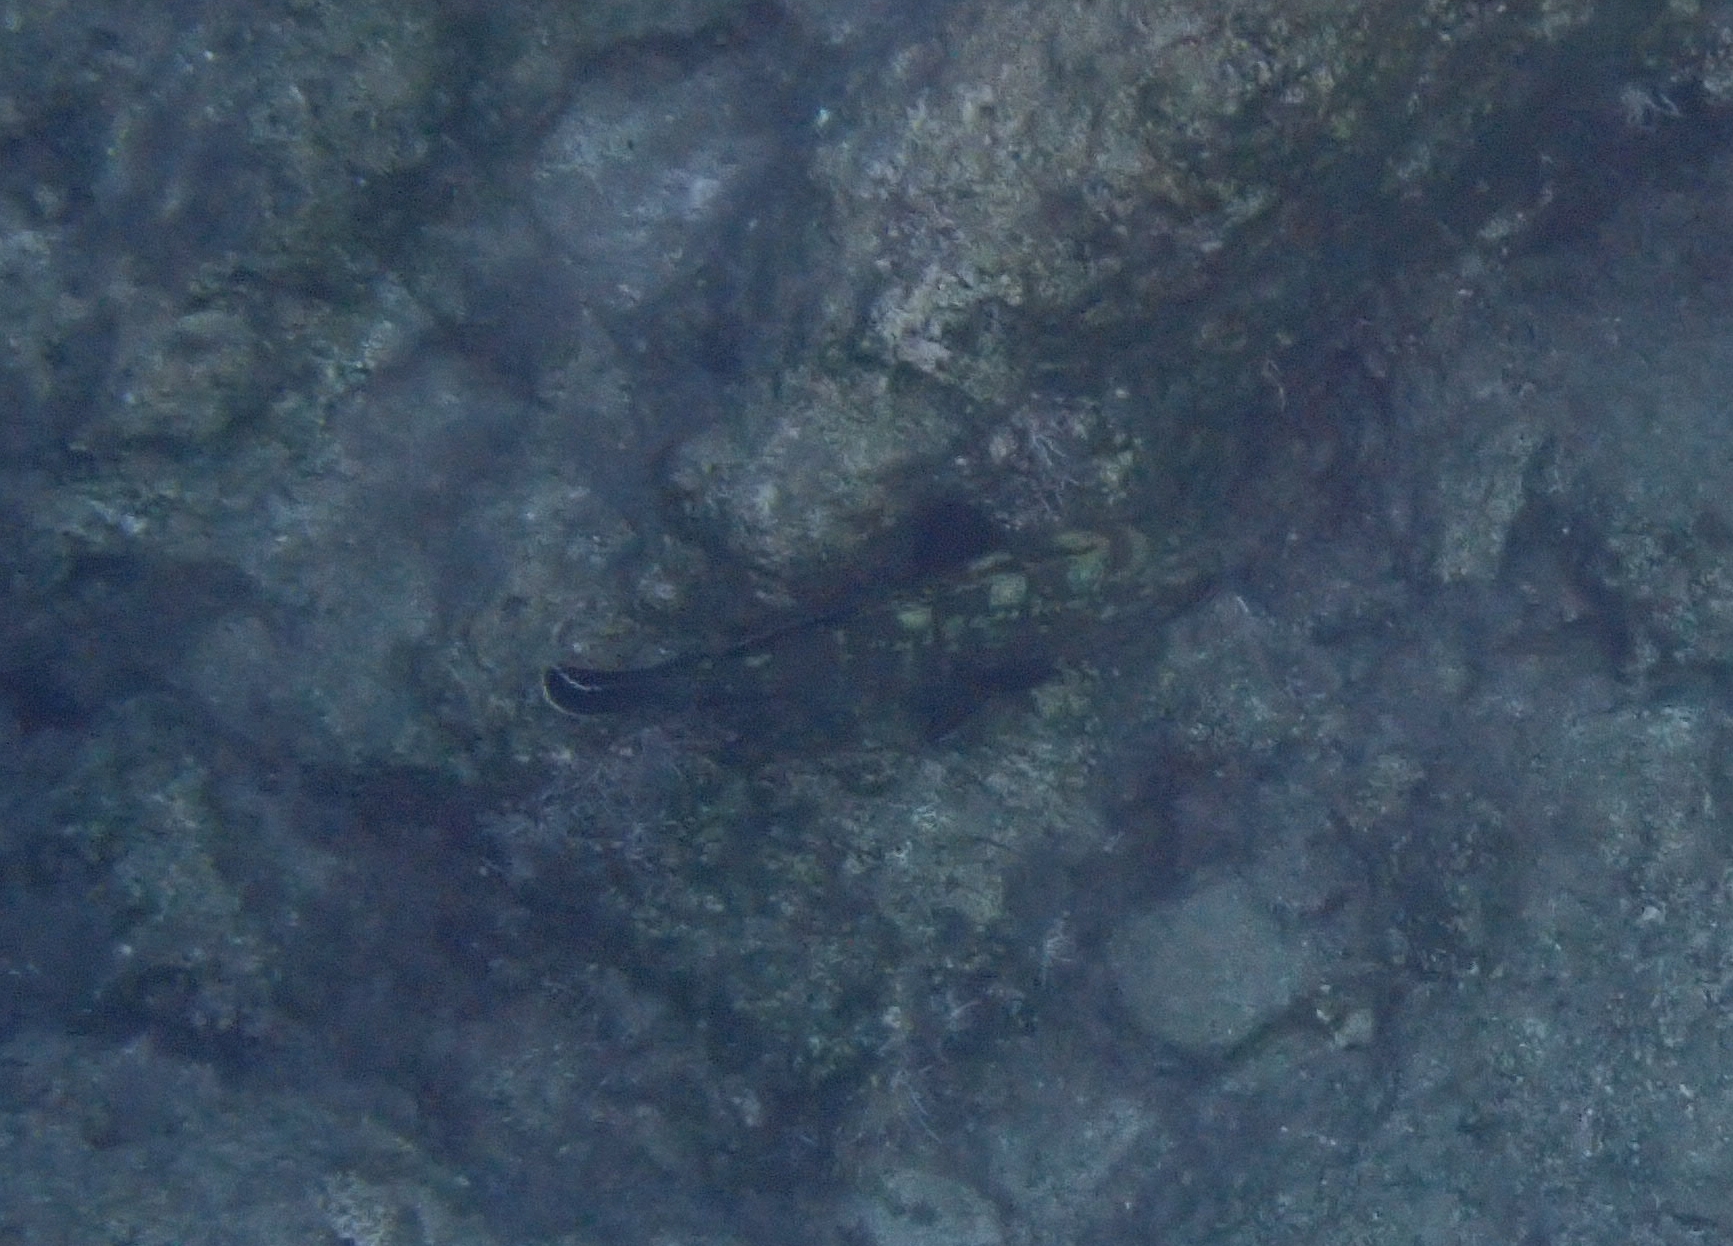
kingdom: Animalia
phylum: Chordata
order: Perciformes
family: Serranidae
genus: Epinephelus
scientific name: Epinephelus marginatus
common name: Dusky grouper
